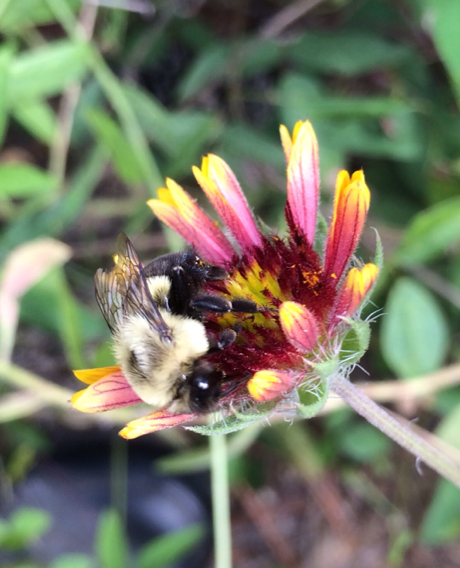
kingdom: Animalia
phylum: Arthropoda
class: Insecta
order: Hymenoptera
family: Apidae
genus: Bombus
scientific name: Bombus impatiens
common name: Common eastern bumble bee
